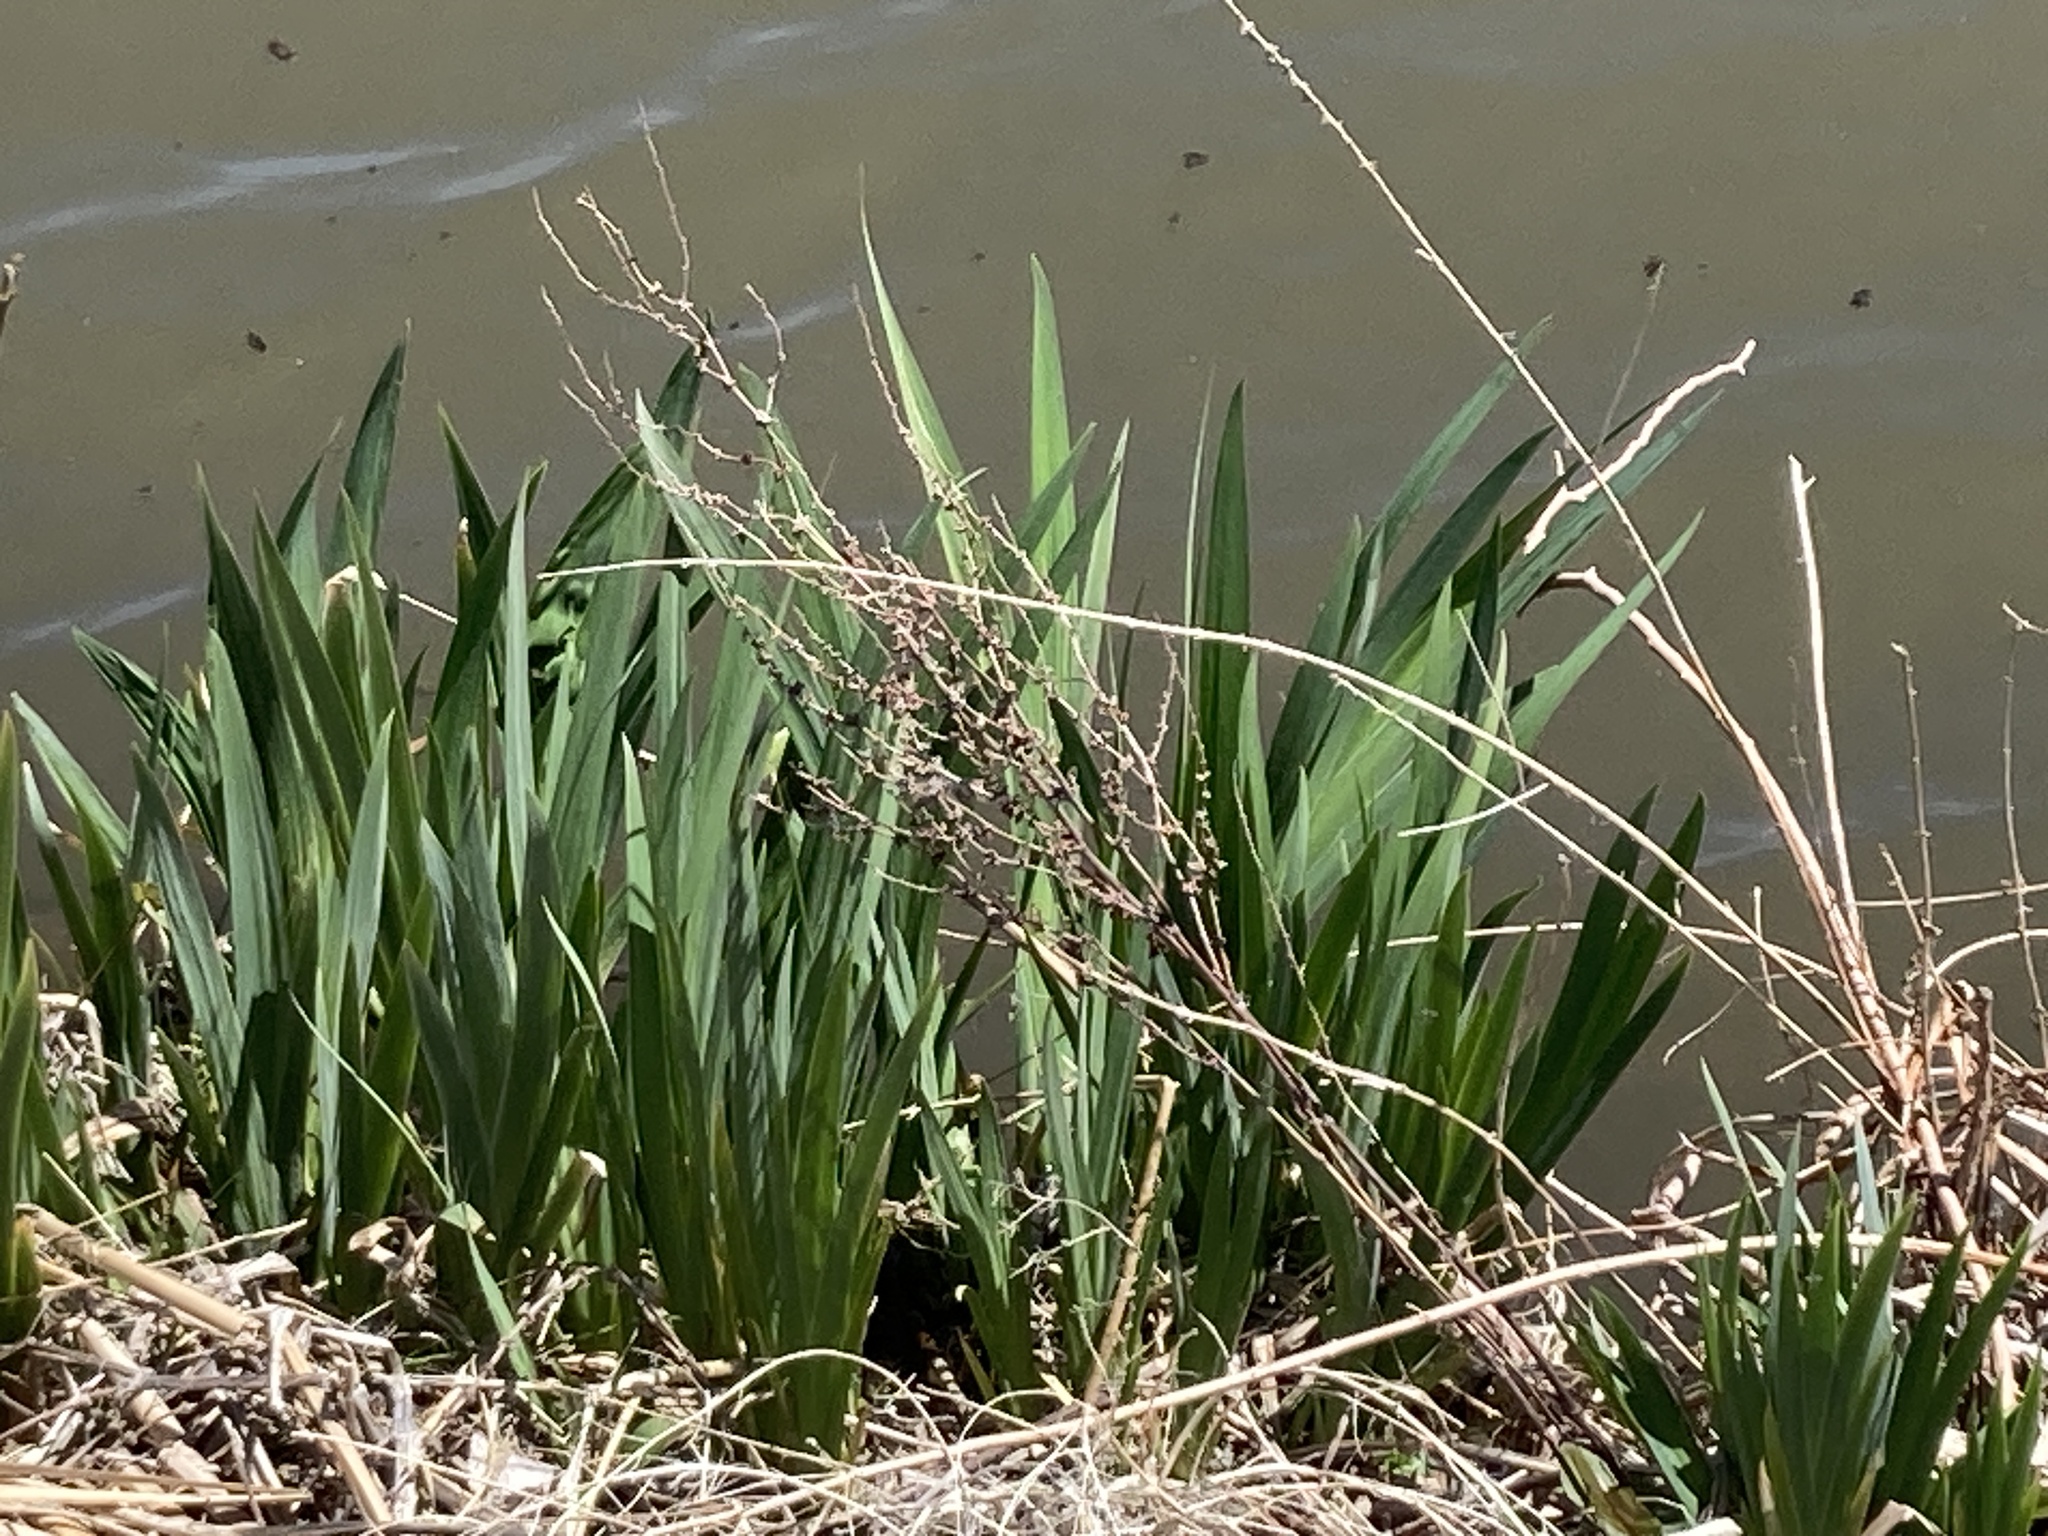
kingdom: Plantae
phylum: Tracheophyta
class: Liliopsida
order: Asparagales
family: Iridaceae
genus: Iris
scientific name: Iris pseudacorus
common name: Yellow flag
